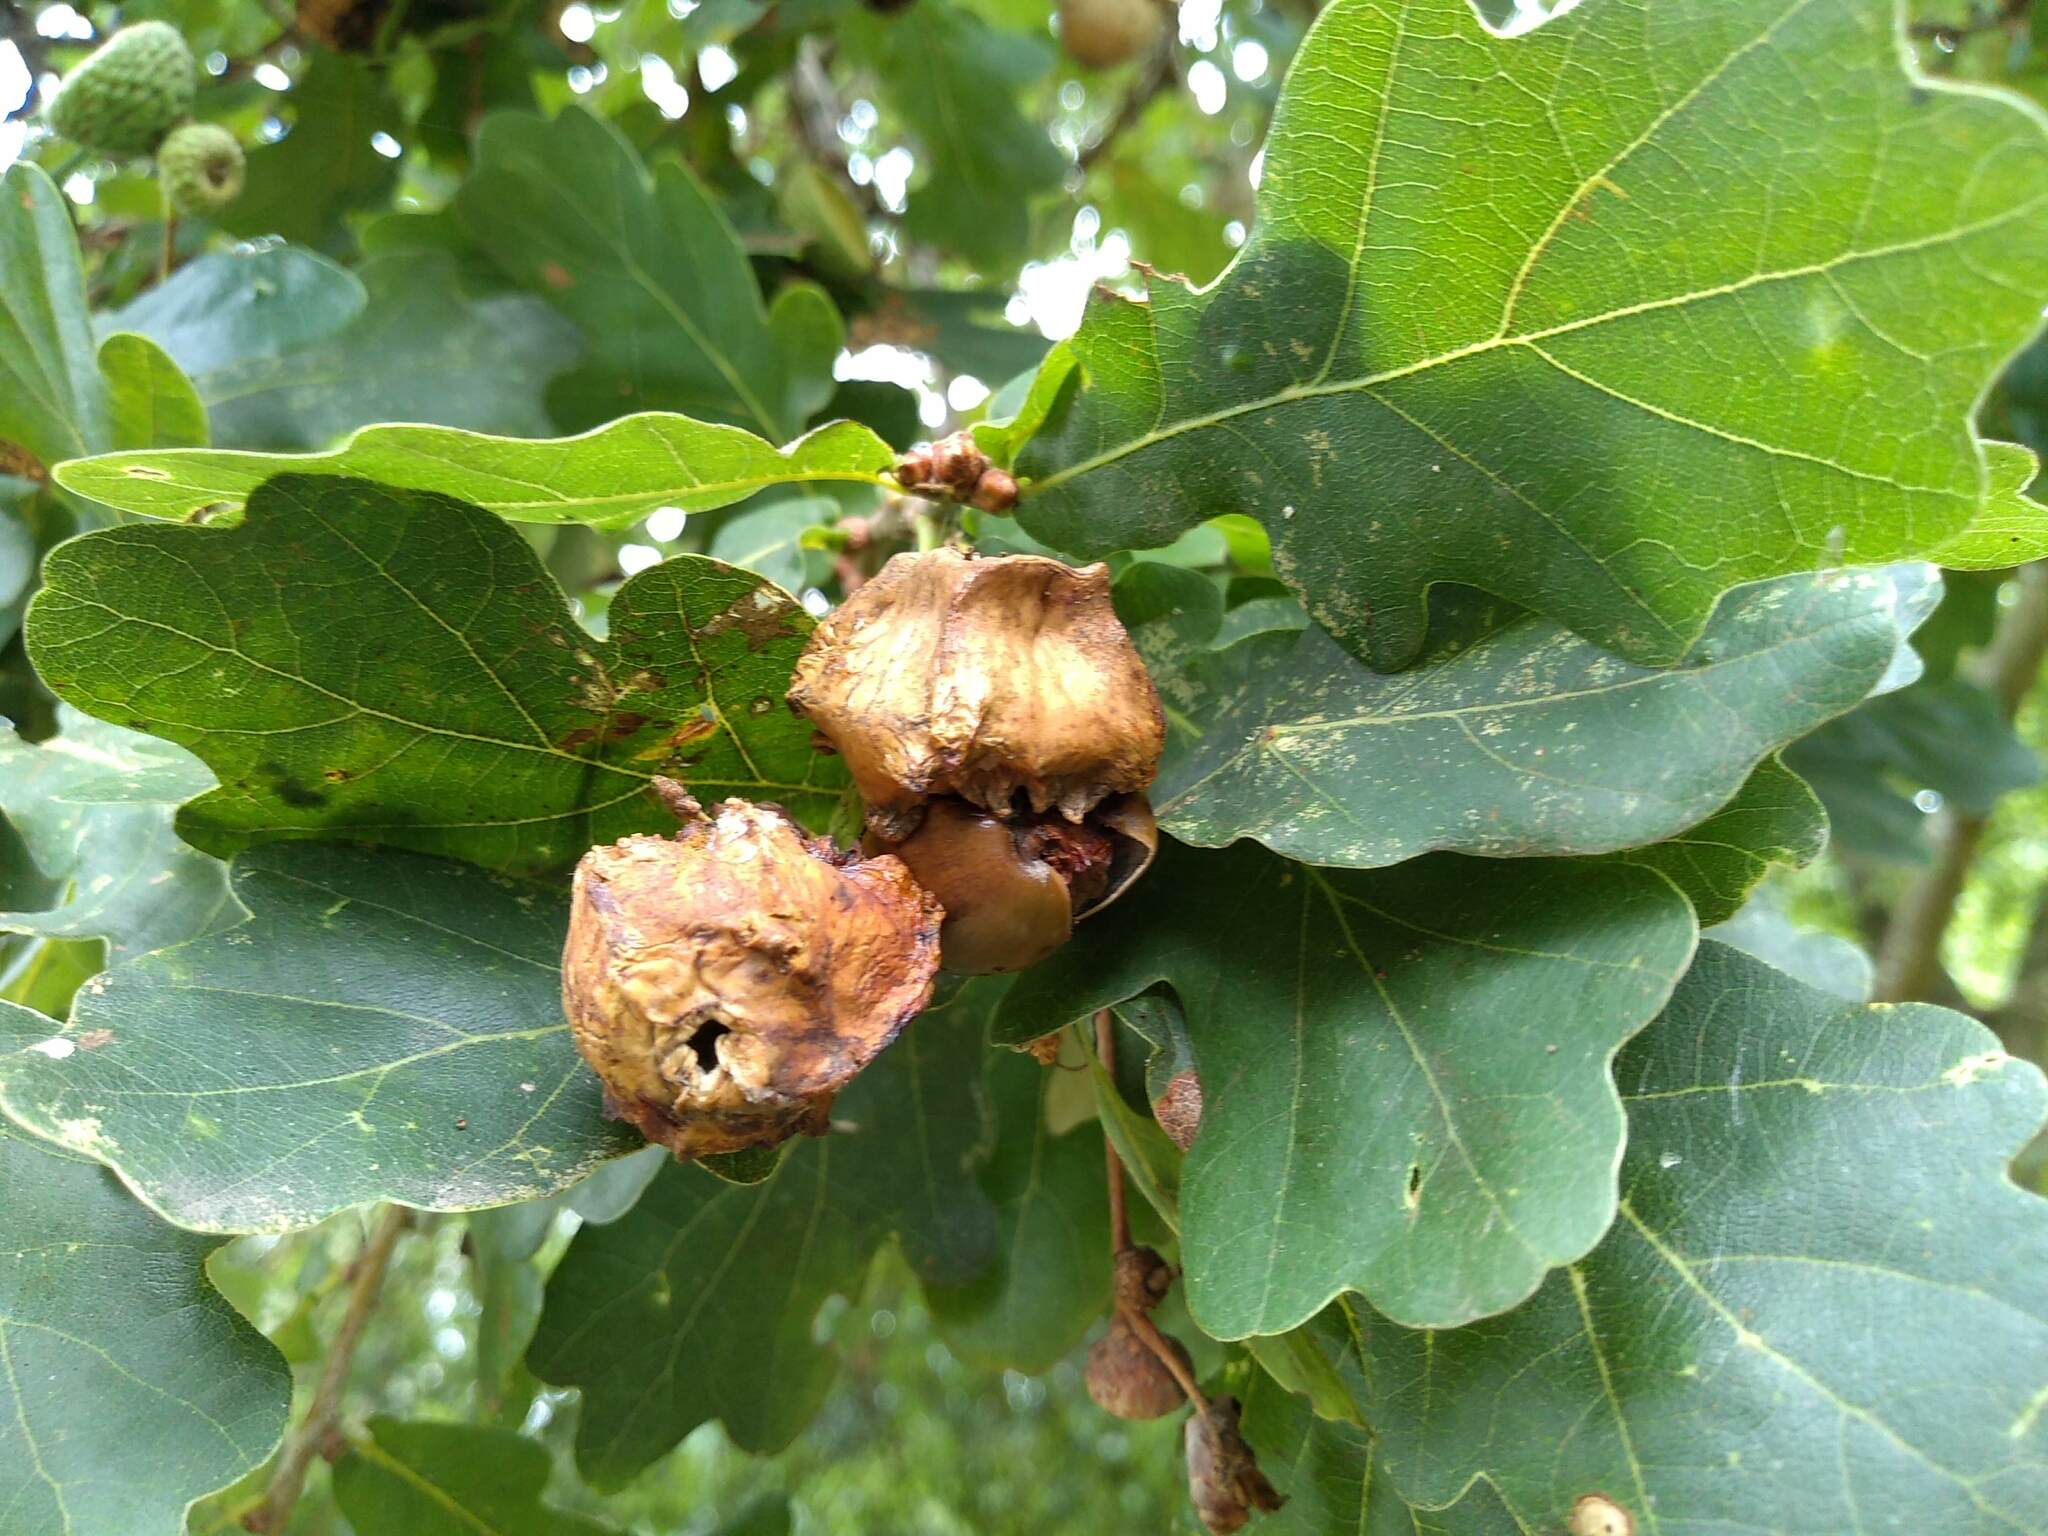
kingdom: Animalia
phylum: Arthropoda
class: Insecta
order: Hymenoptera
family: Cynipidae
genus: Andricus
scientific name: Andricus quercuscalicis
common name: Knopper gall
